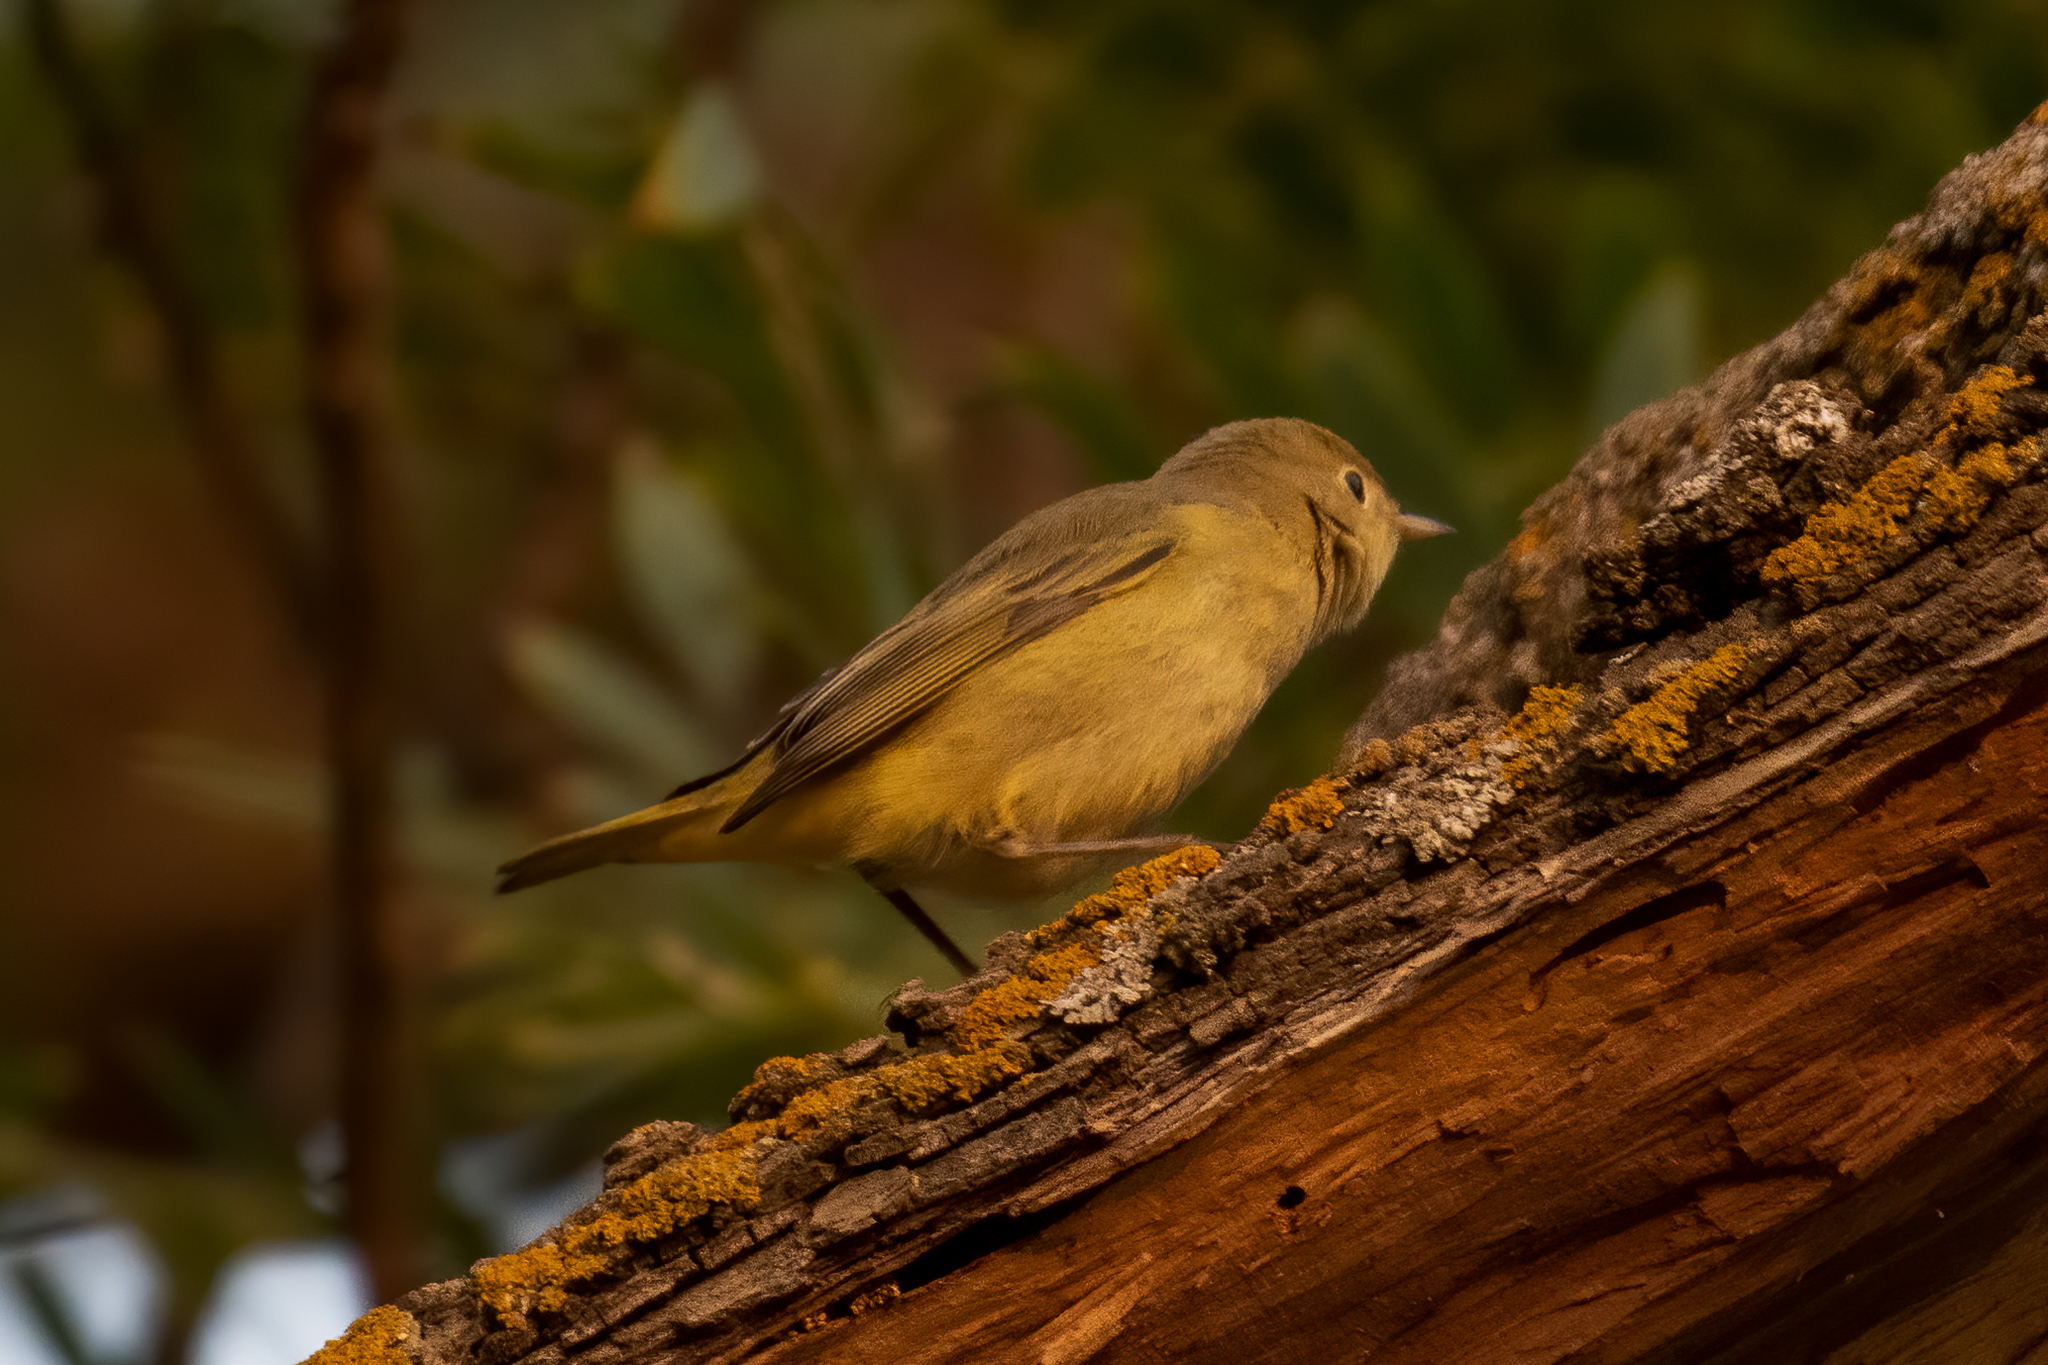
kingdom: Animalia
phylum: Chordata
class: Aves
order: Passeriformes
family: Parulidae
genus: Setophaga
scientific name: Setophaga petechia
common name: Yellow warbler
